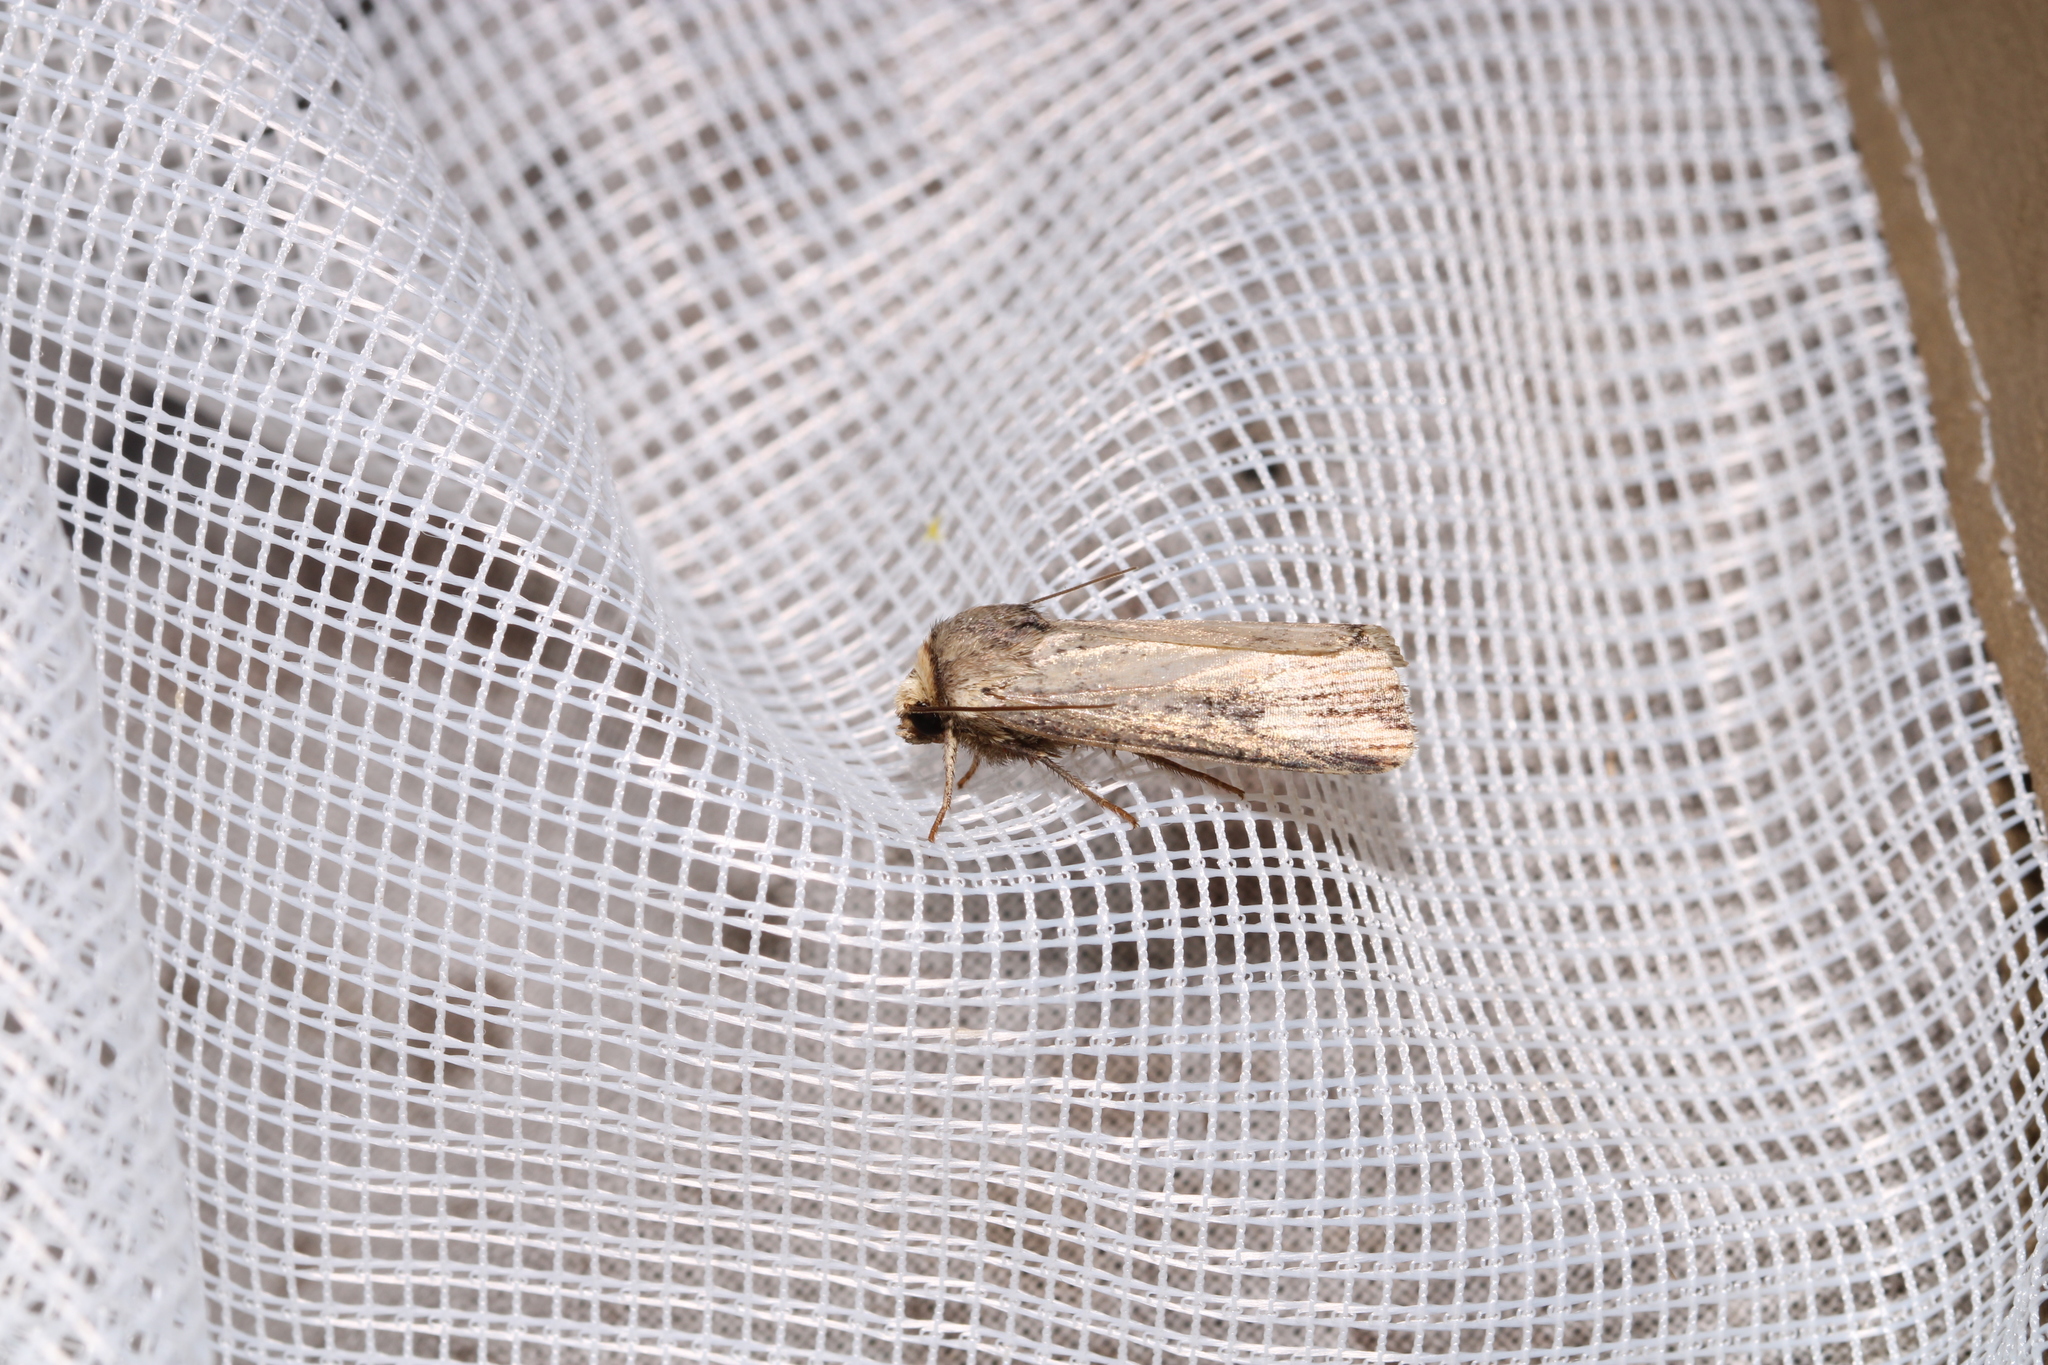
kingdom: Animalia
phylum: Arthropoda
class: Insecta
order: Lepidoptera
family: Noctuidae
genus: Axylia
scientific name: Axylia putris
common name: Flame
